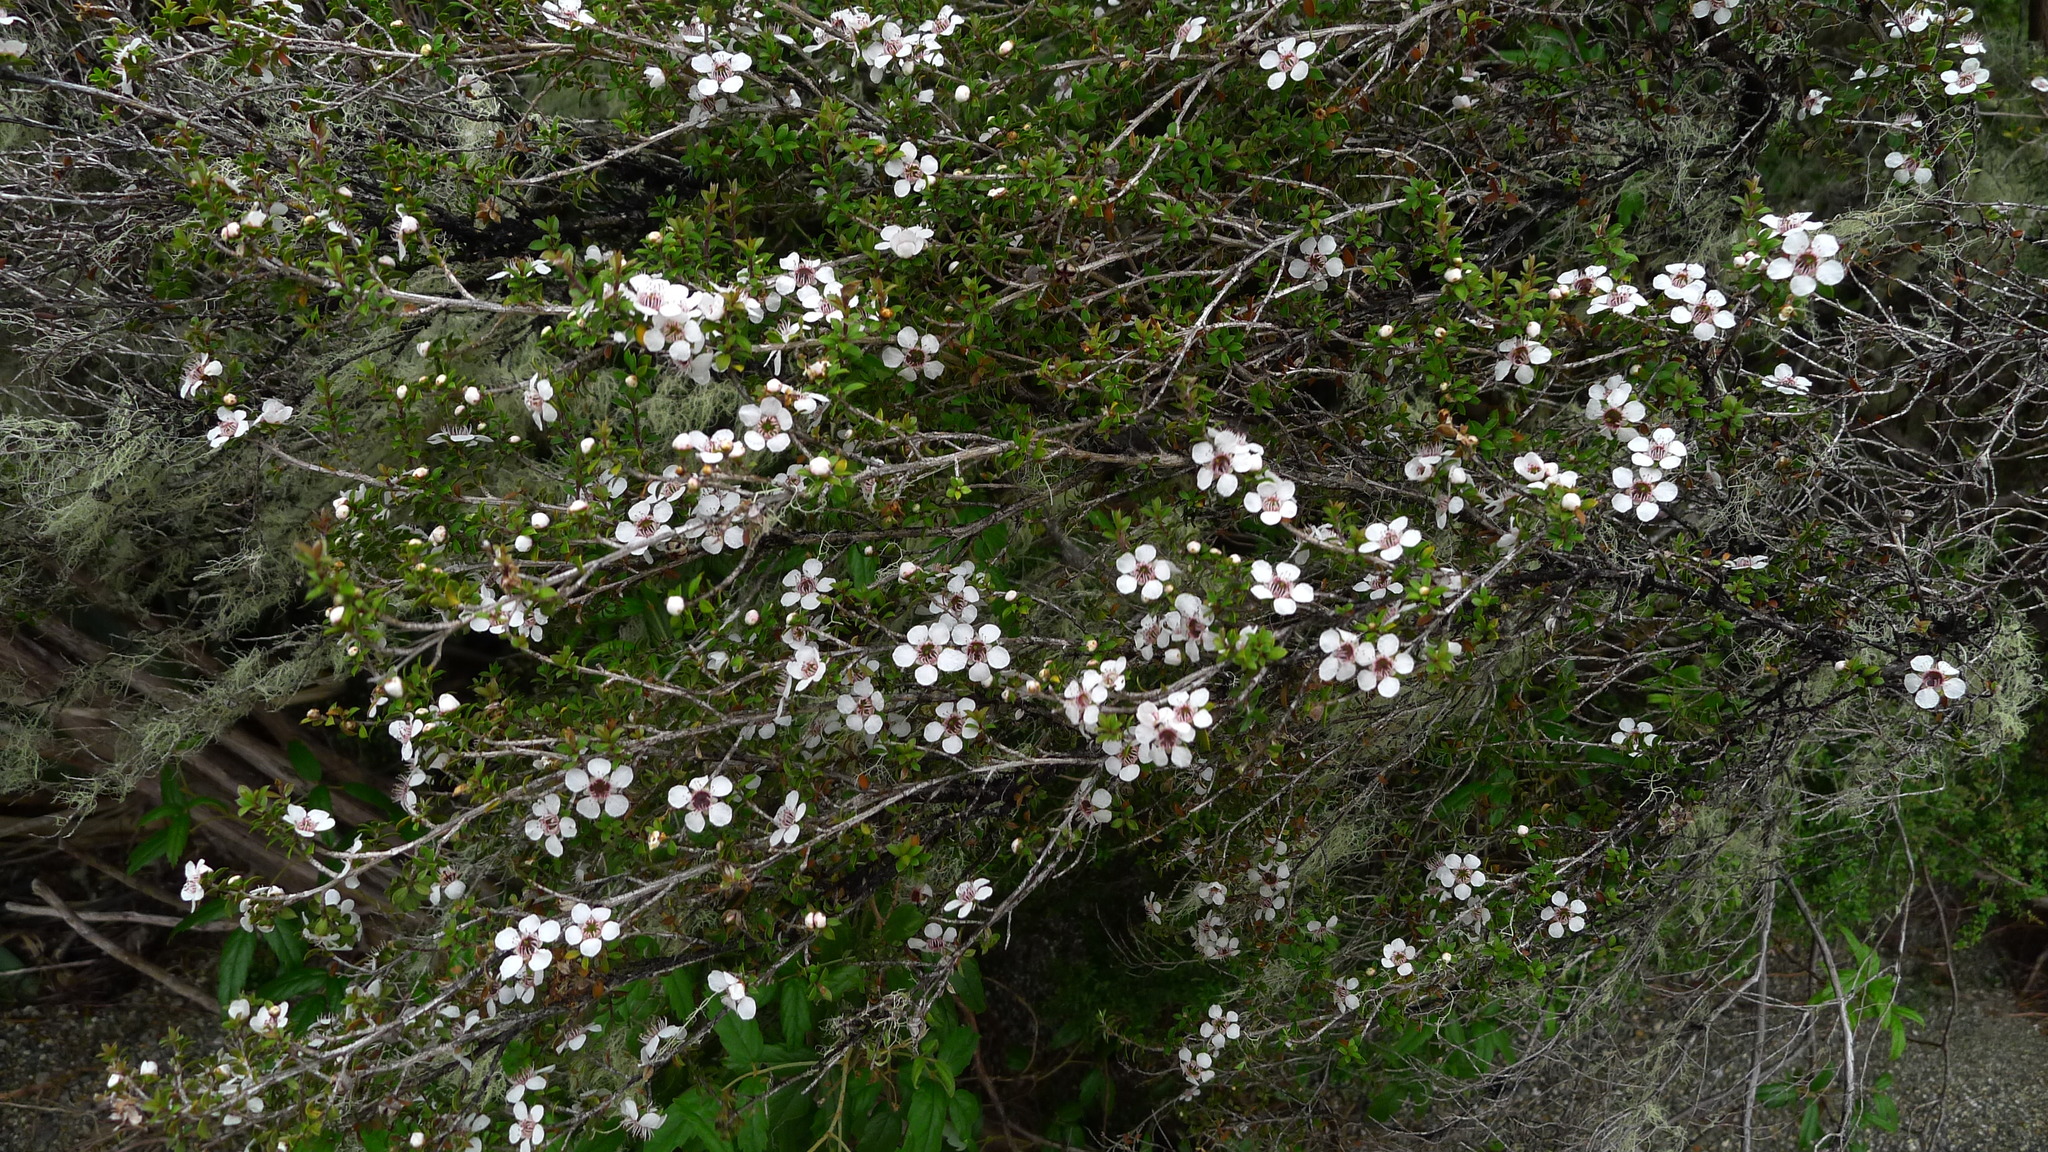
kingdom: Plantae
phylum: Tracheophyta
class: Magnoliopsida
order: Myrtales
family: Myrtaceae
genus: Leptospermum
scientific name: Leptospermum scoparium
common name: Broom tea-tree
